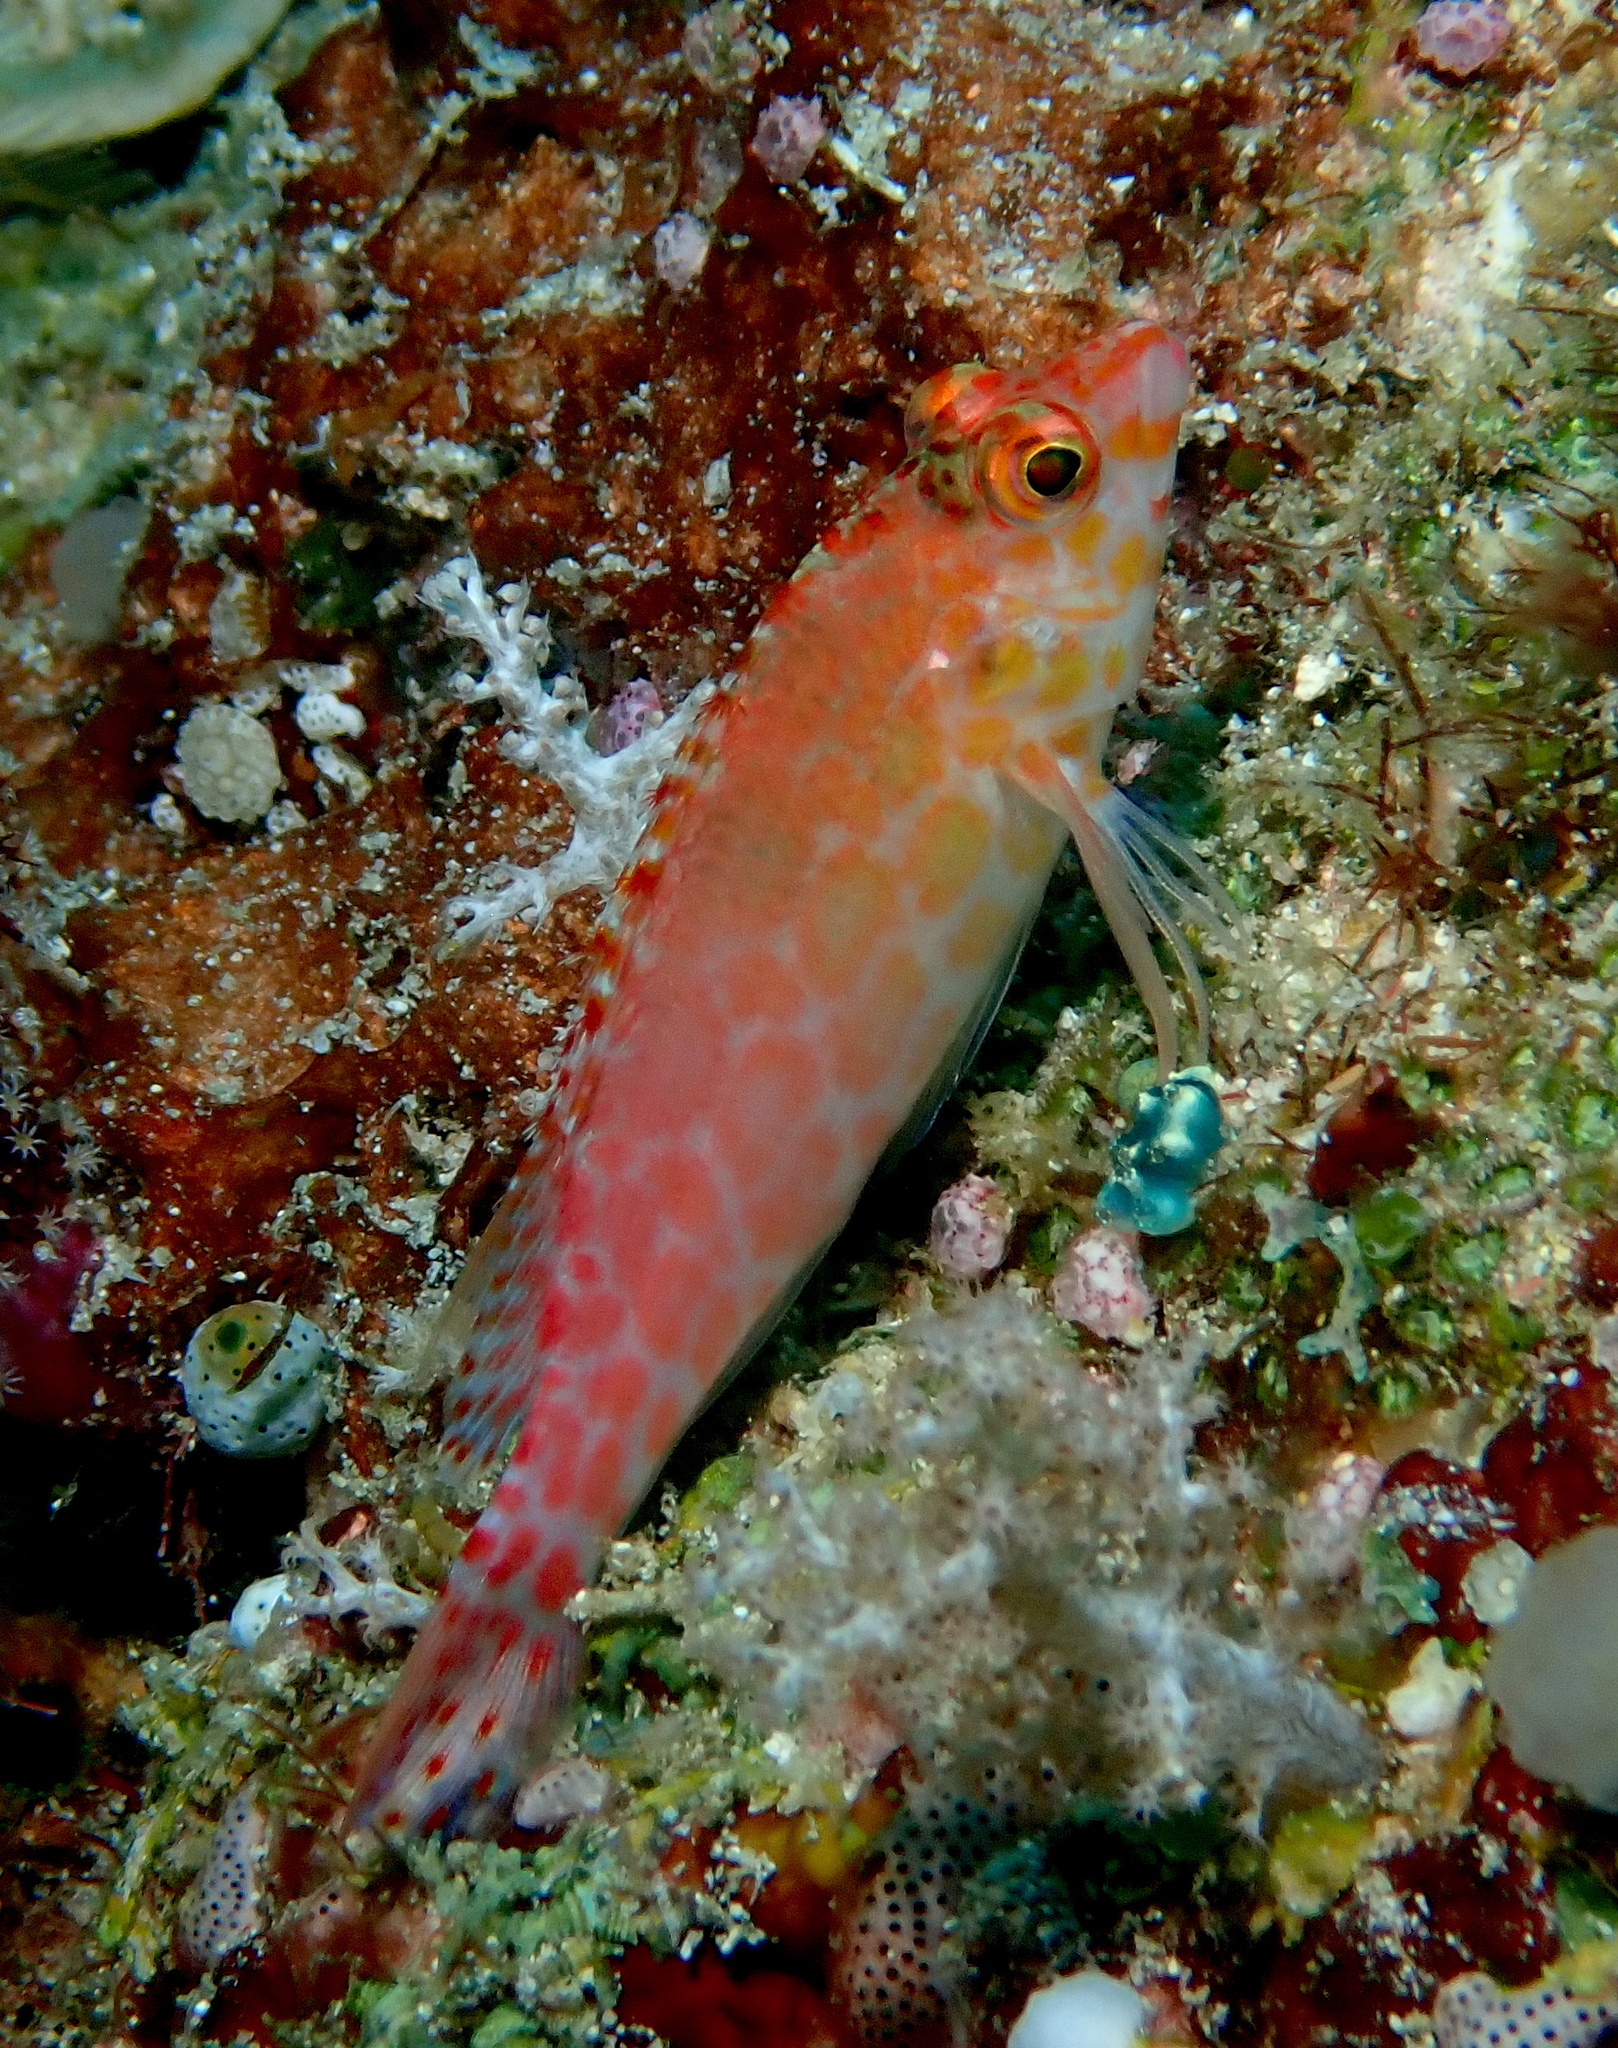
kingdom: Animalia
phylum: Chordata
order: Perciformes
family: Cirrhitidae
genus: Cirrhitichthys
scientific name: Cirrhitichthys oxycephalus
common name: Spotted hawkfish
